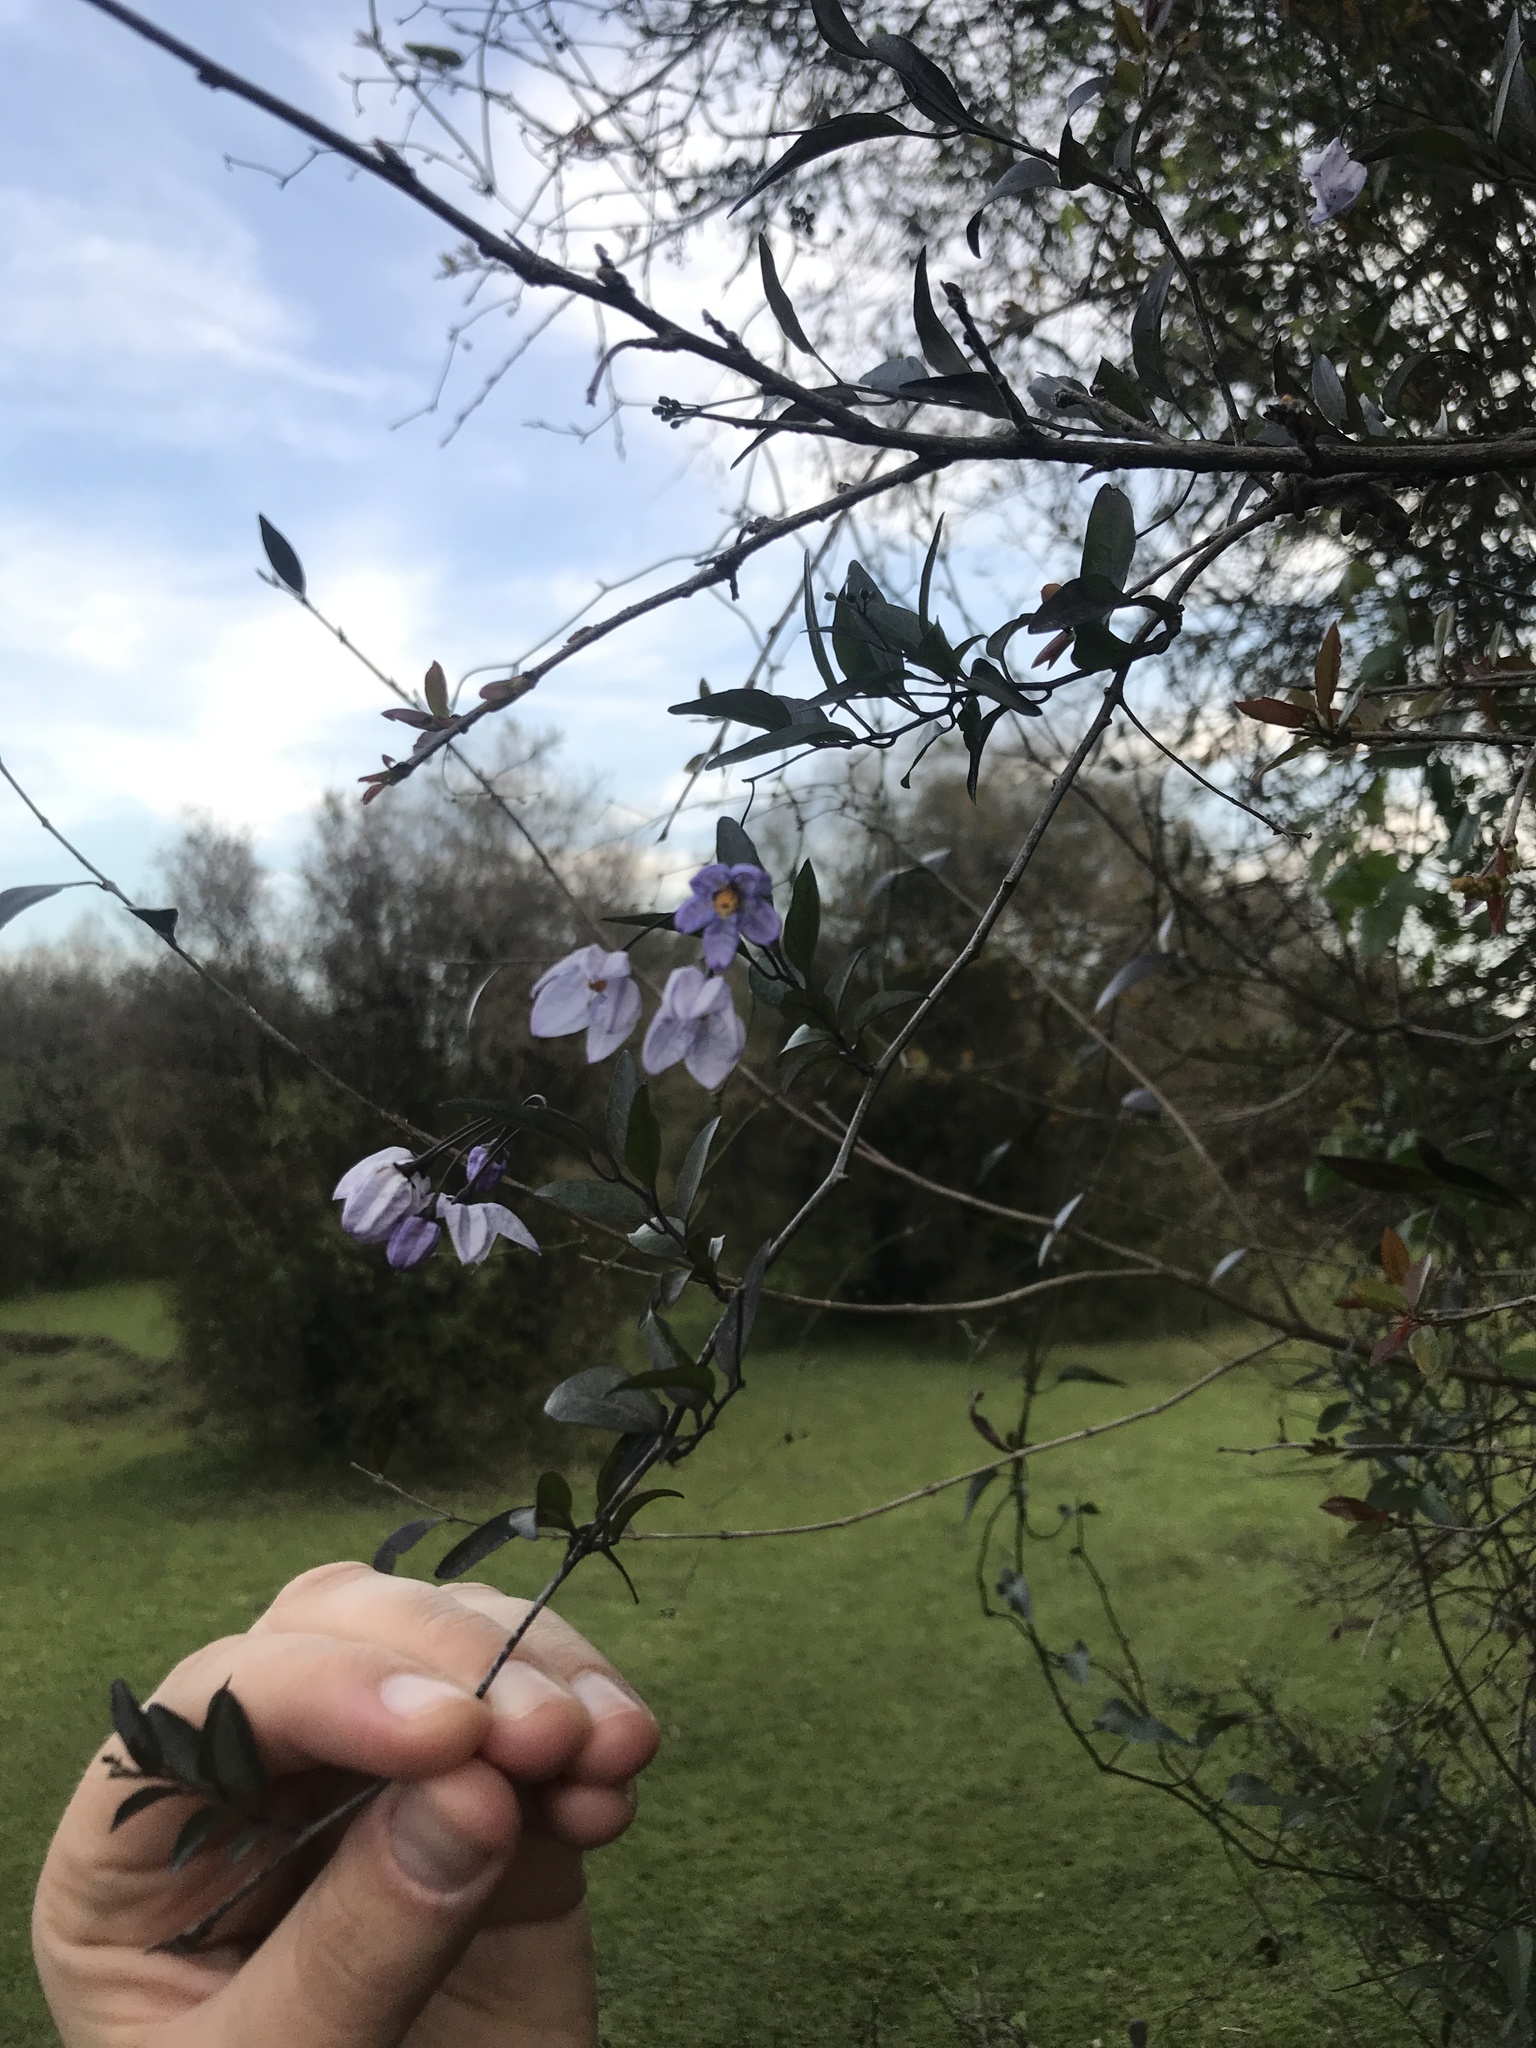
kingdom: Plantae
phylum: Tracheophyta
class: Magnoliopsida
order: Solanales
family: Solanaceae
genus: Solanum
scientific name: Solanum laxum
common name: Nightshade
